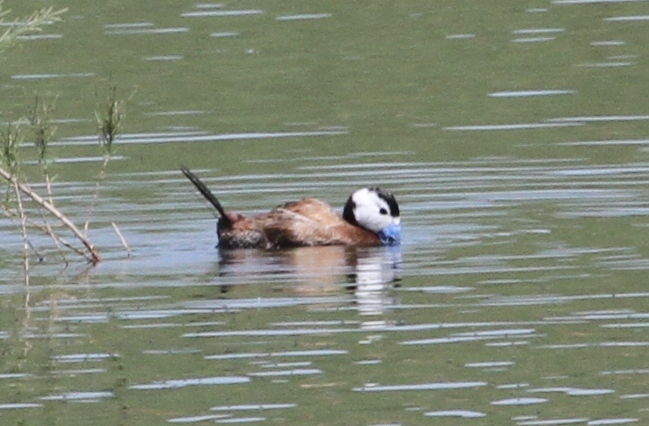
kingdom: Animalia
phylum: Chordata
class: Aves
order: Anseriformes
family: Anatidae
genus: Oxyura
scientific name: Oxyura leucocephala
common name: White-headed duck
